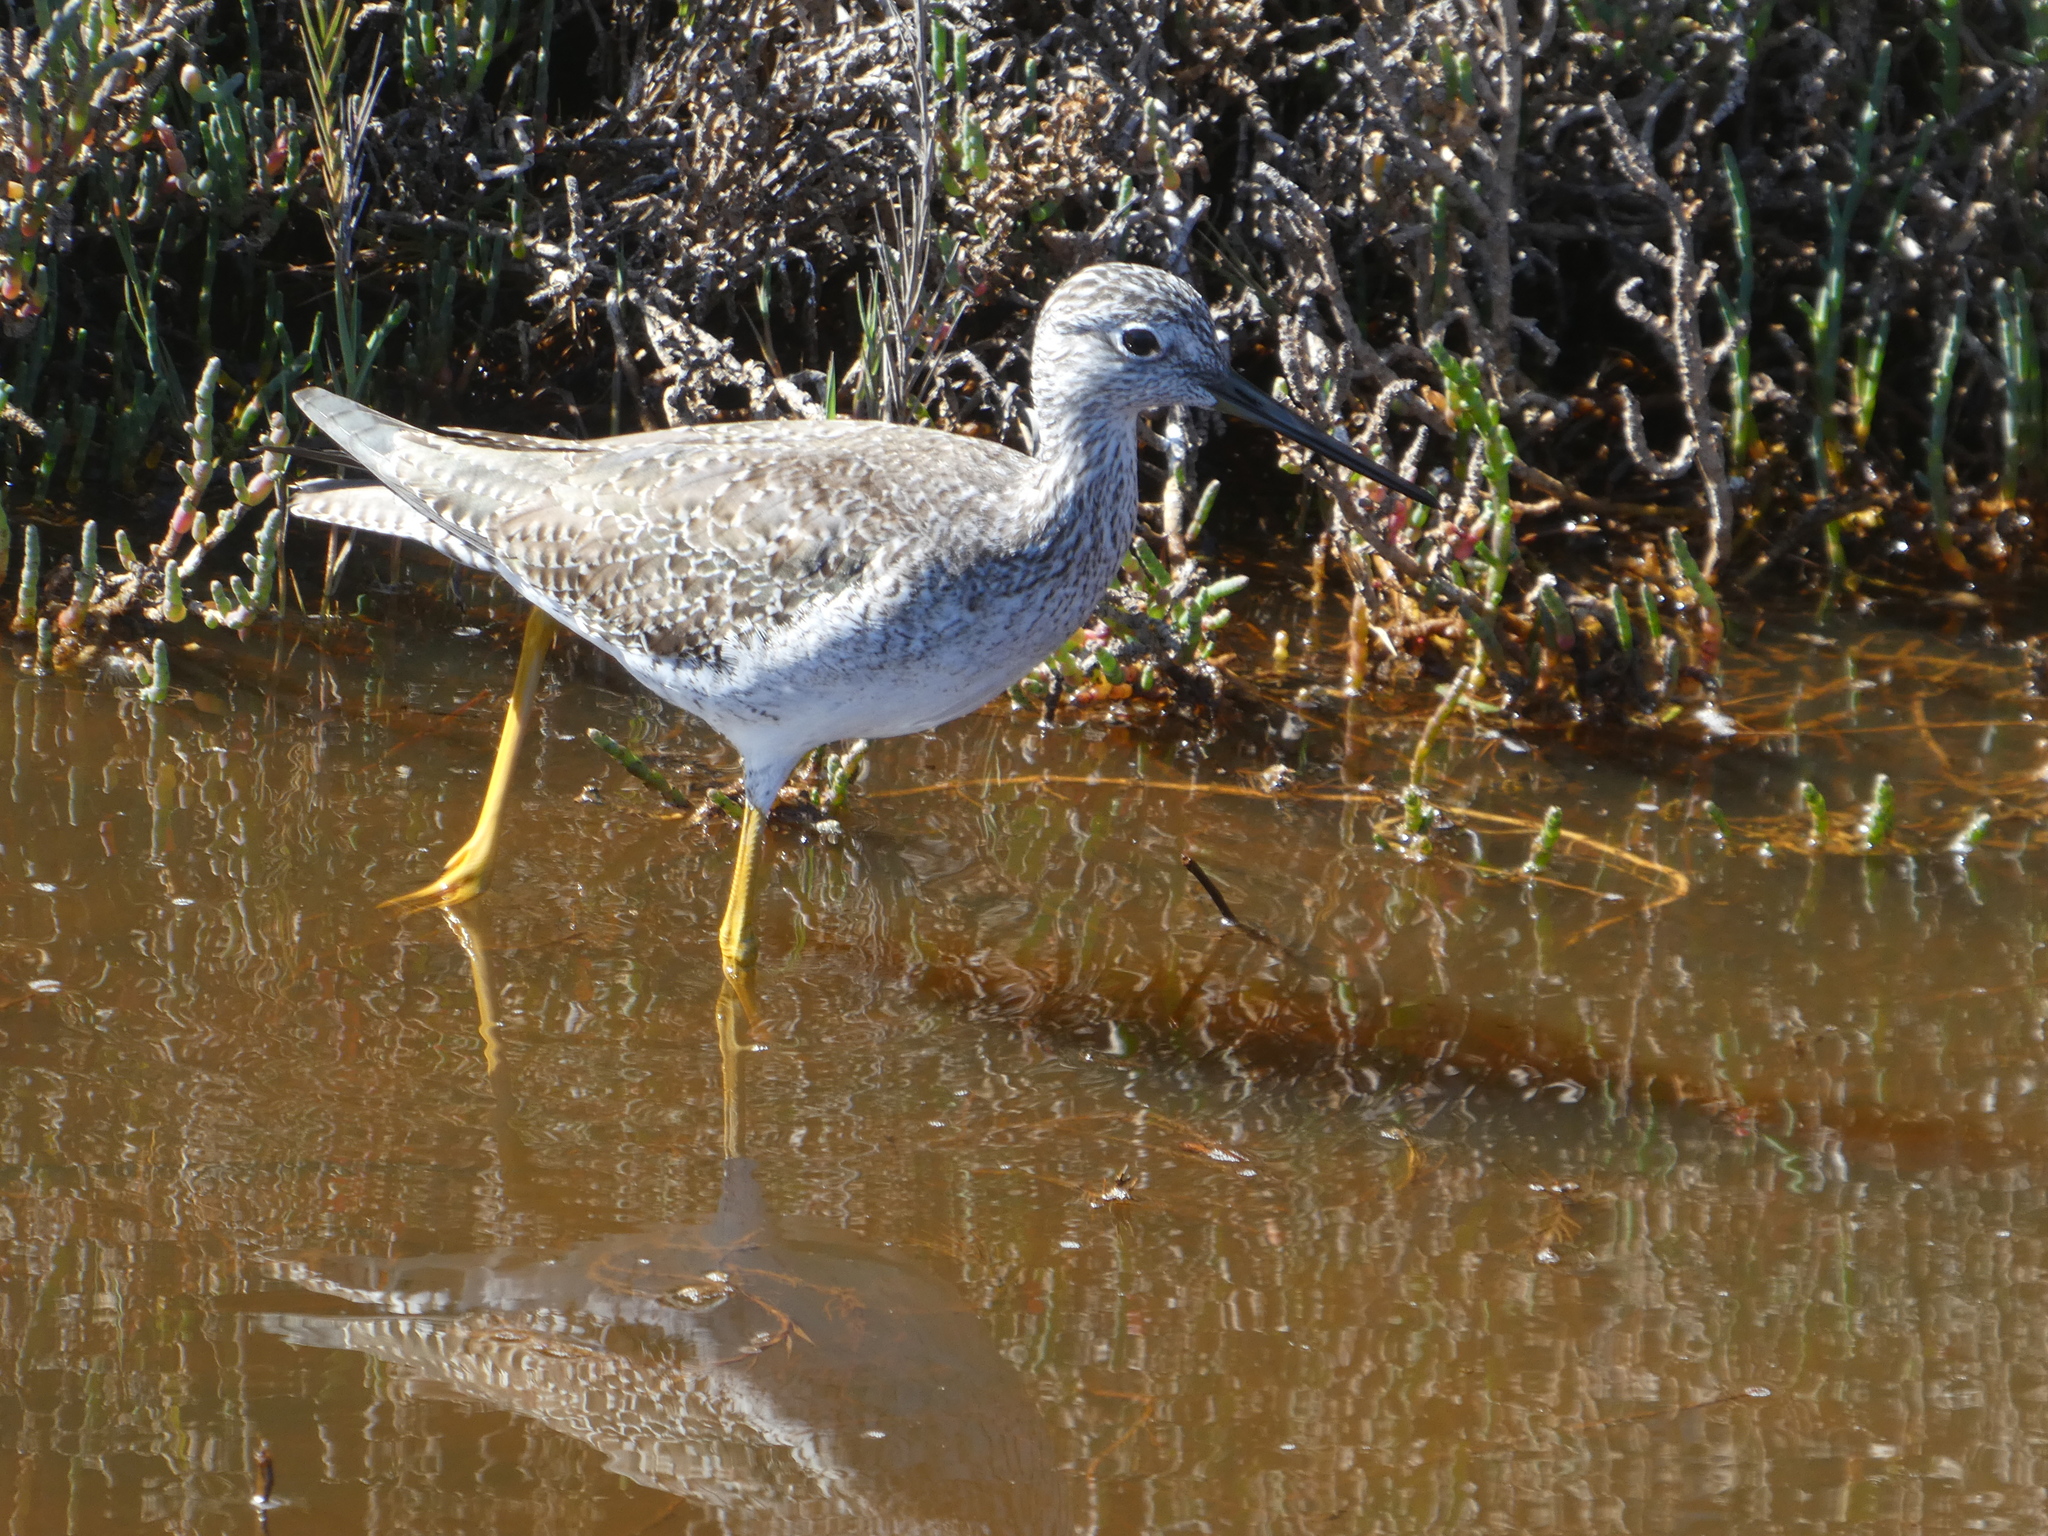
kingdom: Animalia
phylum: Chordata
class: Aves
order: Charadriiformes
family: Scolopacidae
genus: Tringa
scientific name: Tringa melanoleuca
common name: Greater yellowlegs
